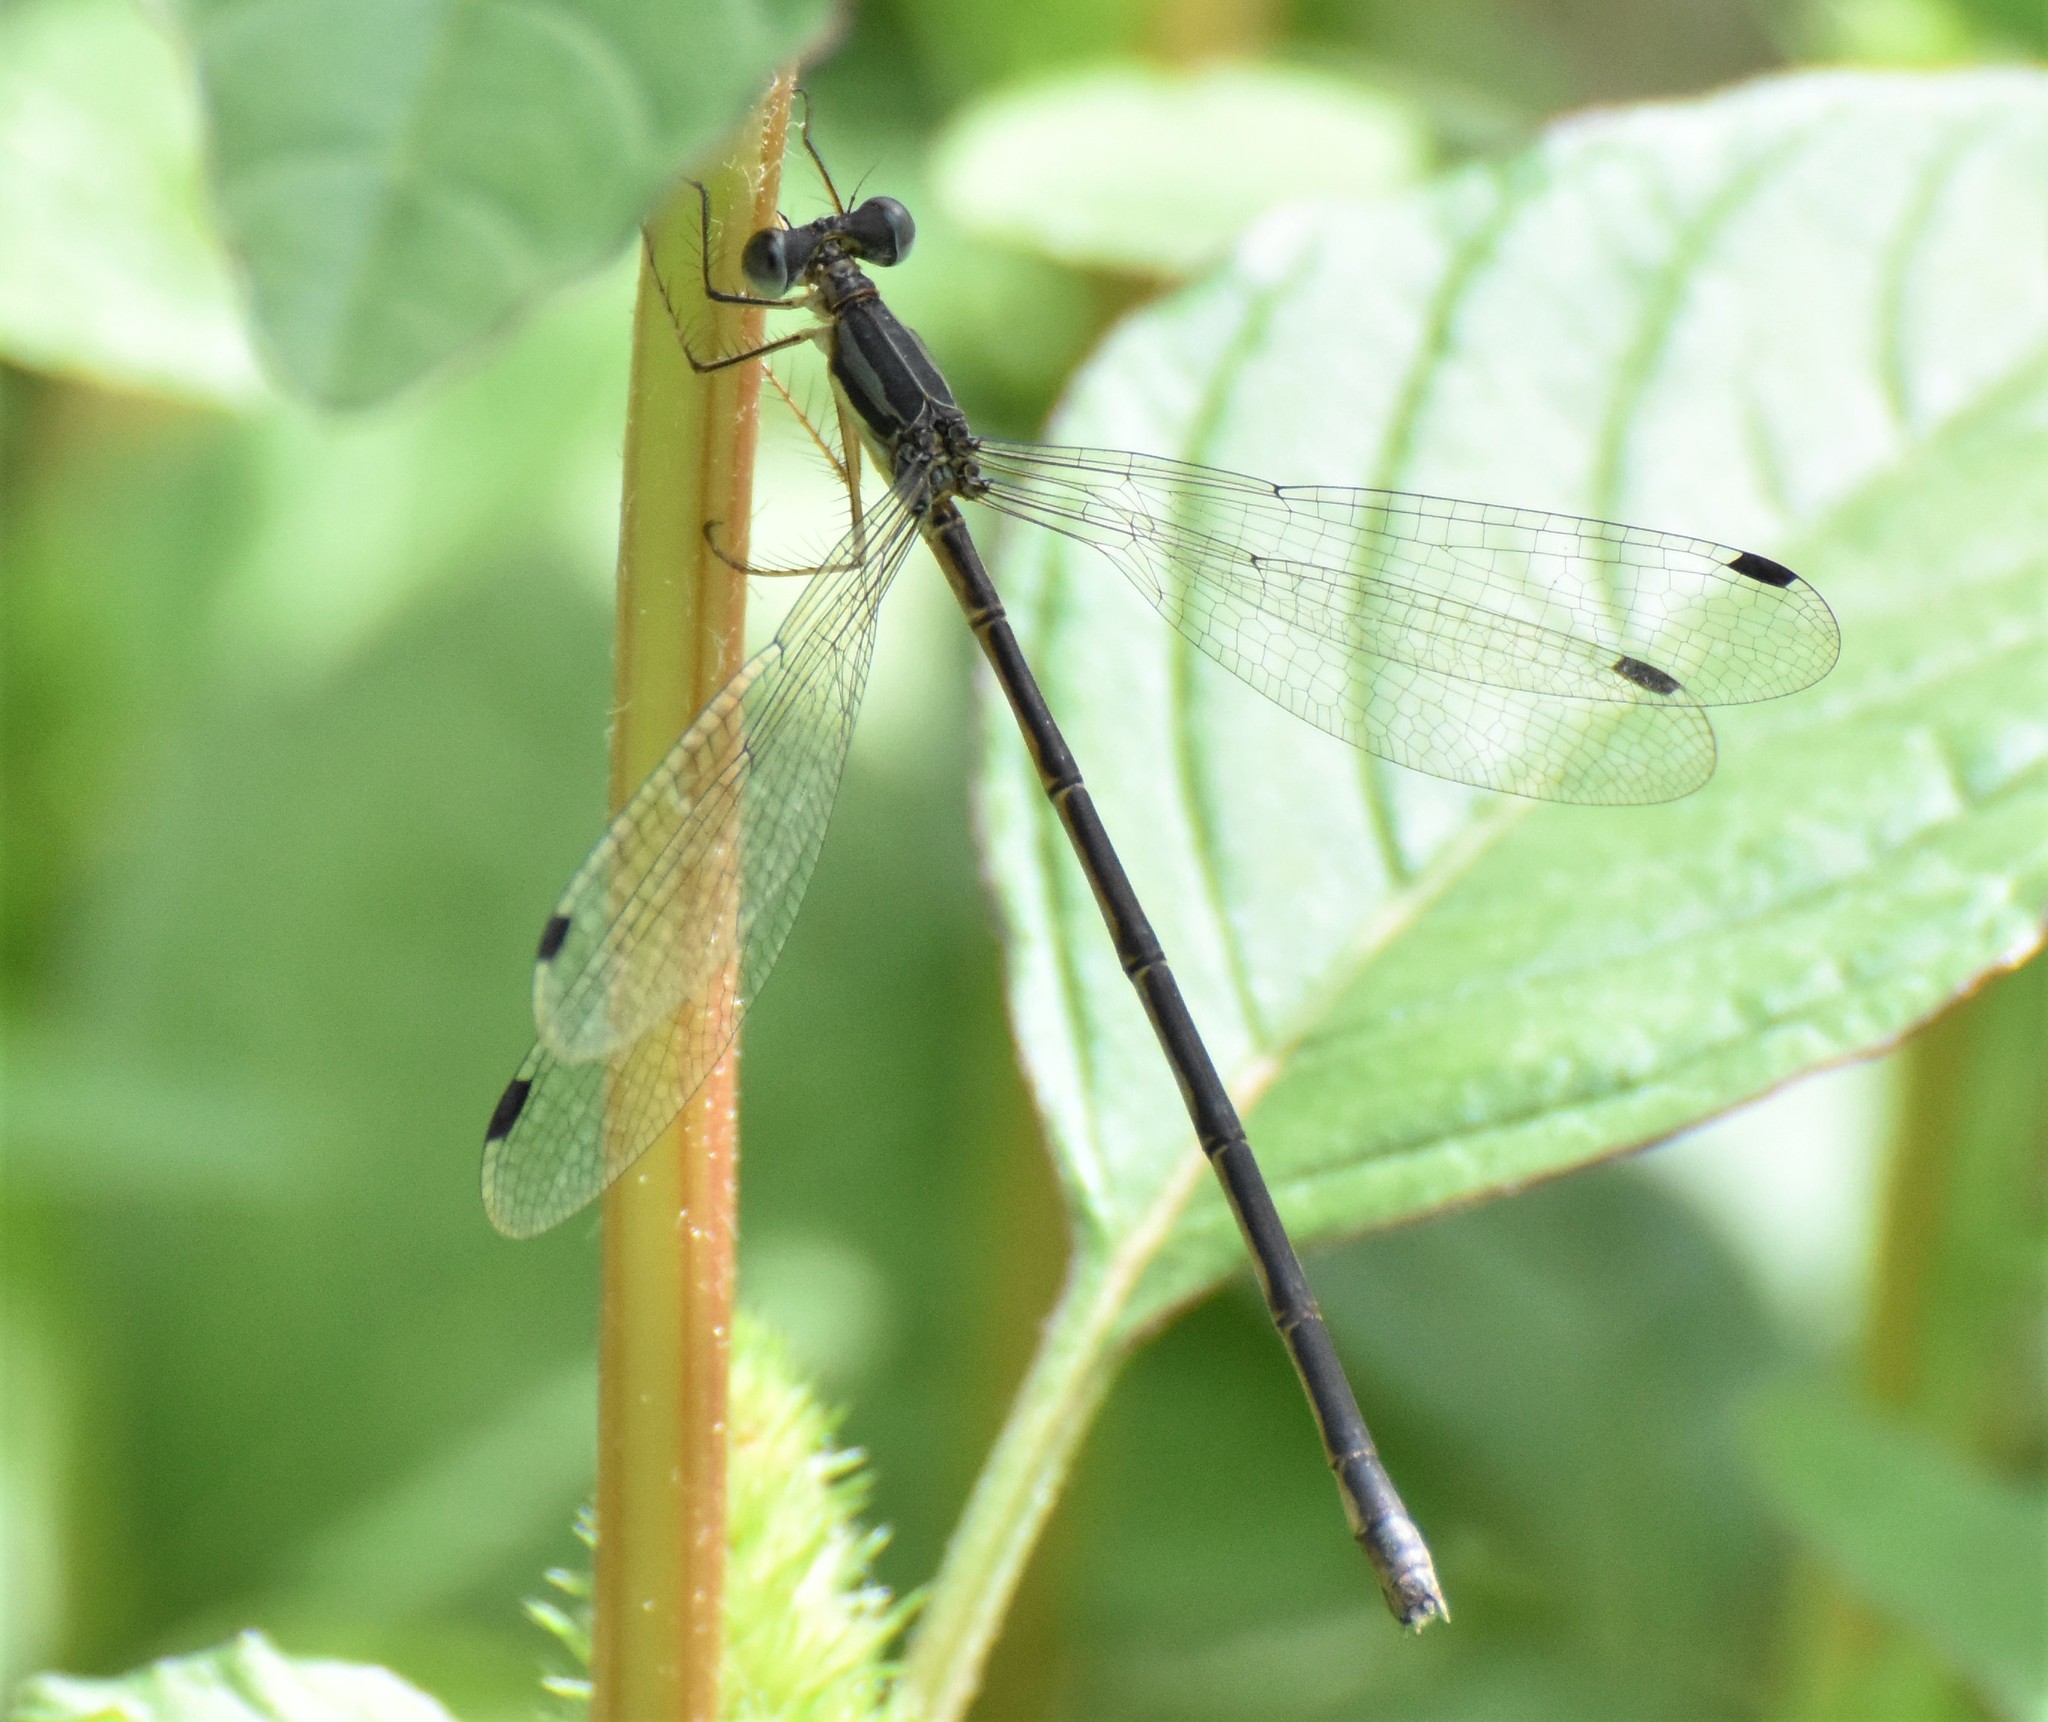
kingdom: Animalia
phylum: Arthropoda
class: Insecta
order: Odonata
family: Lestidae
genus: Lestes
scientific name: Lestes rectangularis
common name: Slender spreadwing
